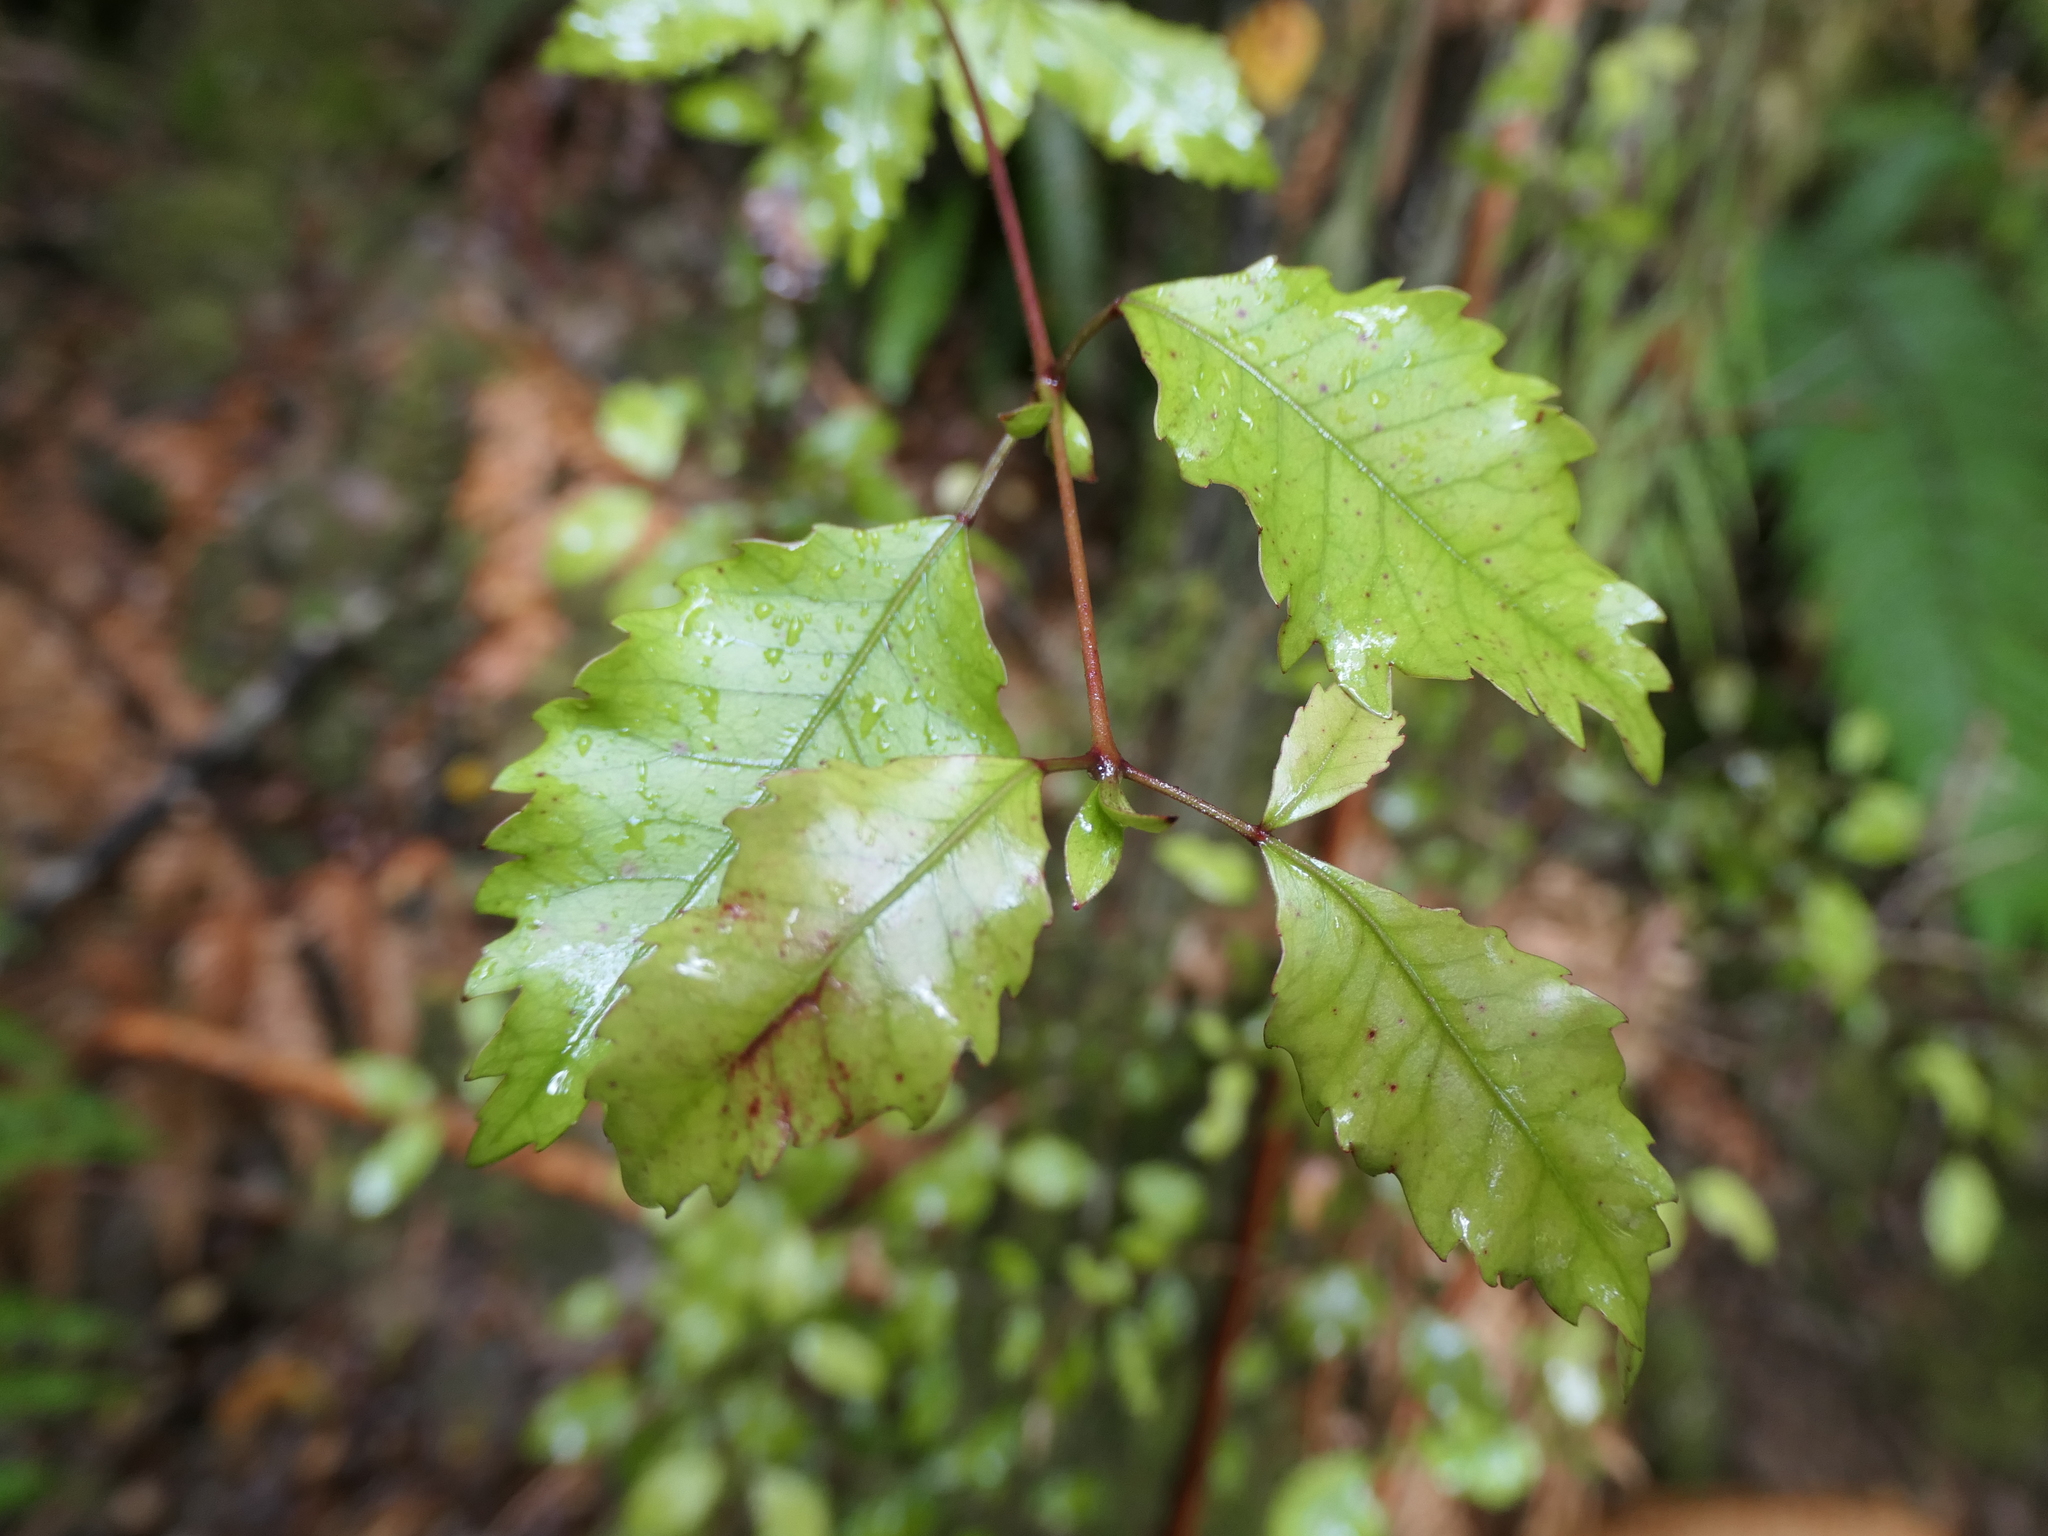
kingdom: Plantae
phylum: Tracheophyta
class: Magnoliopsida
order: Oxalidales
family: Cunoniaceae
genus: Pterophylla
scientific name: Pterophylla racemosa
